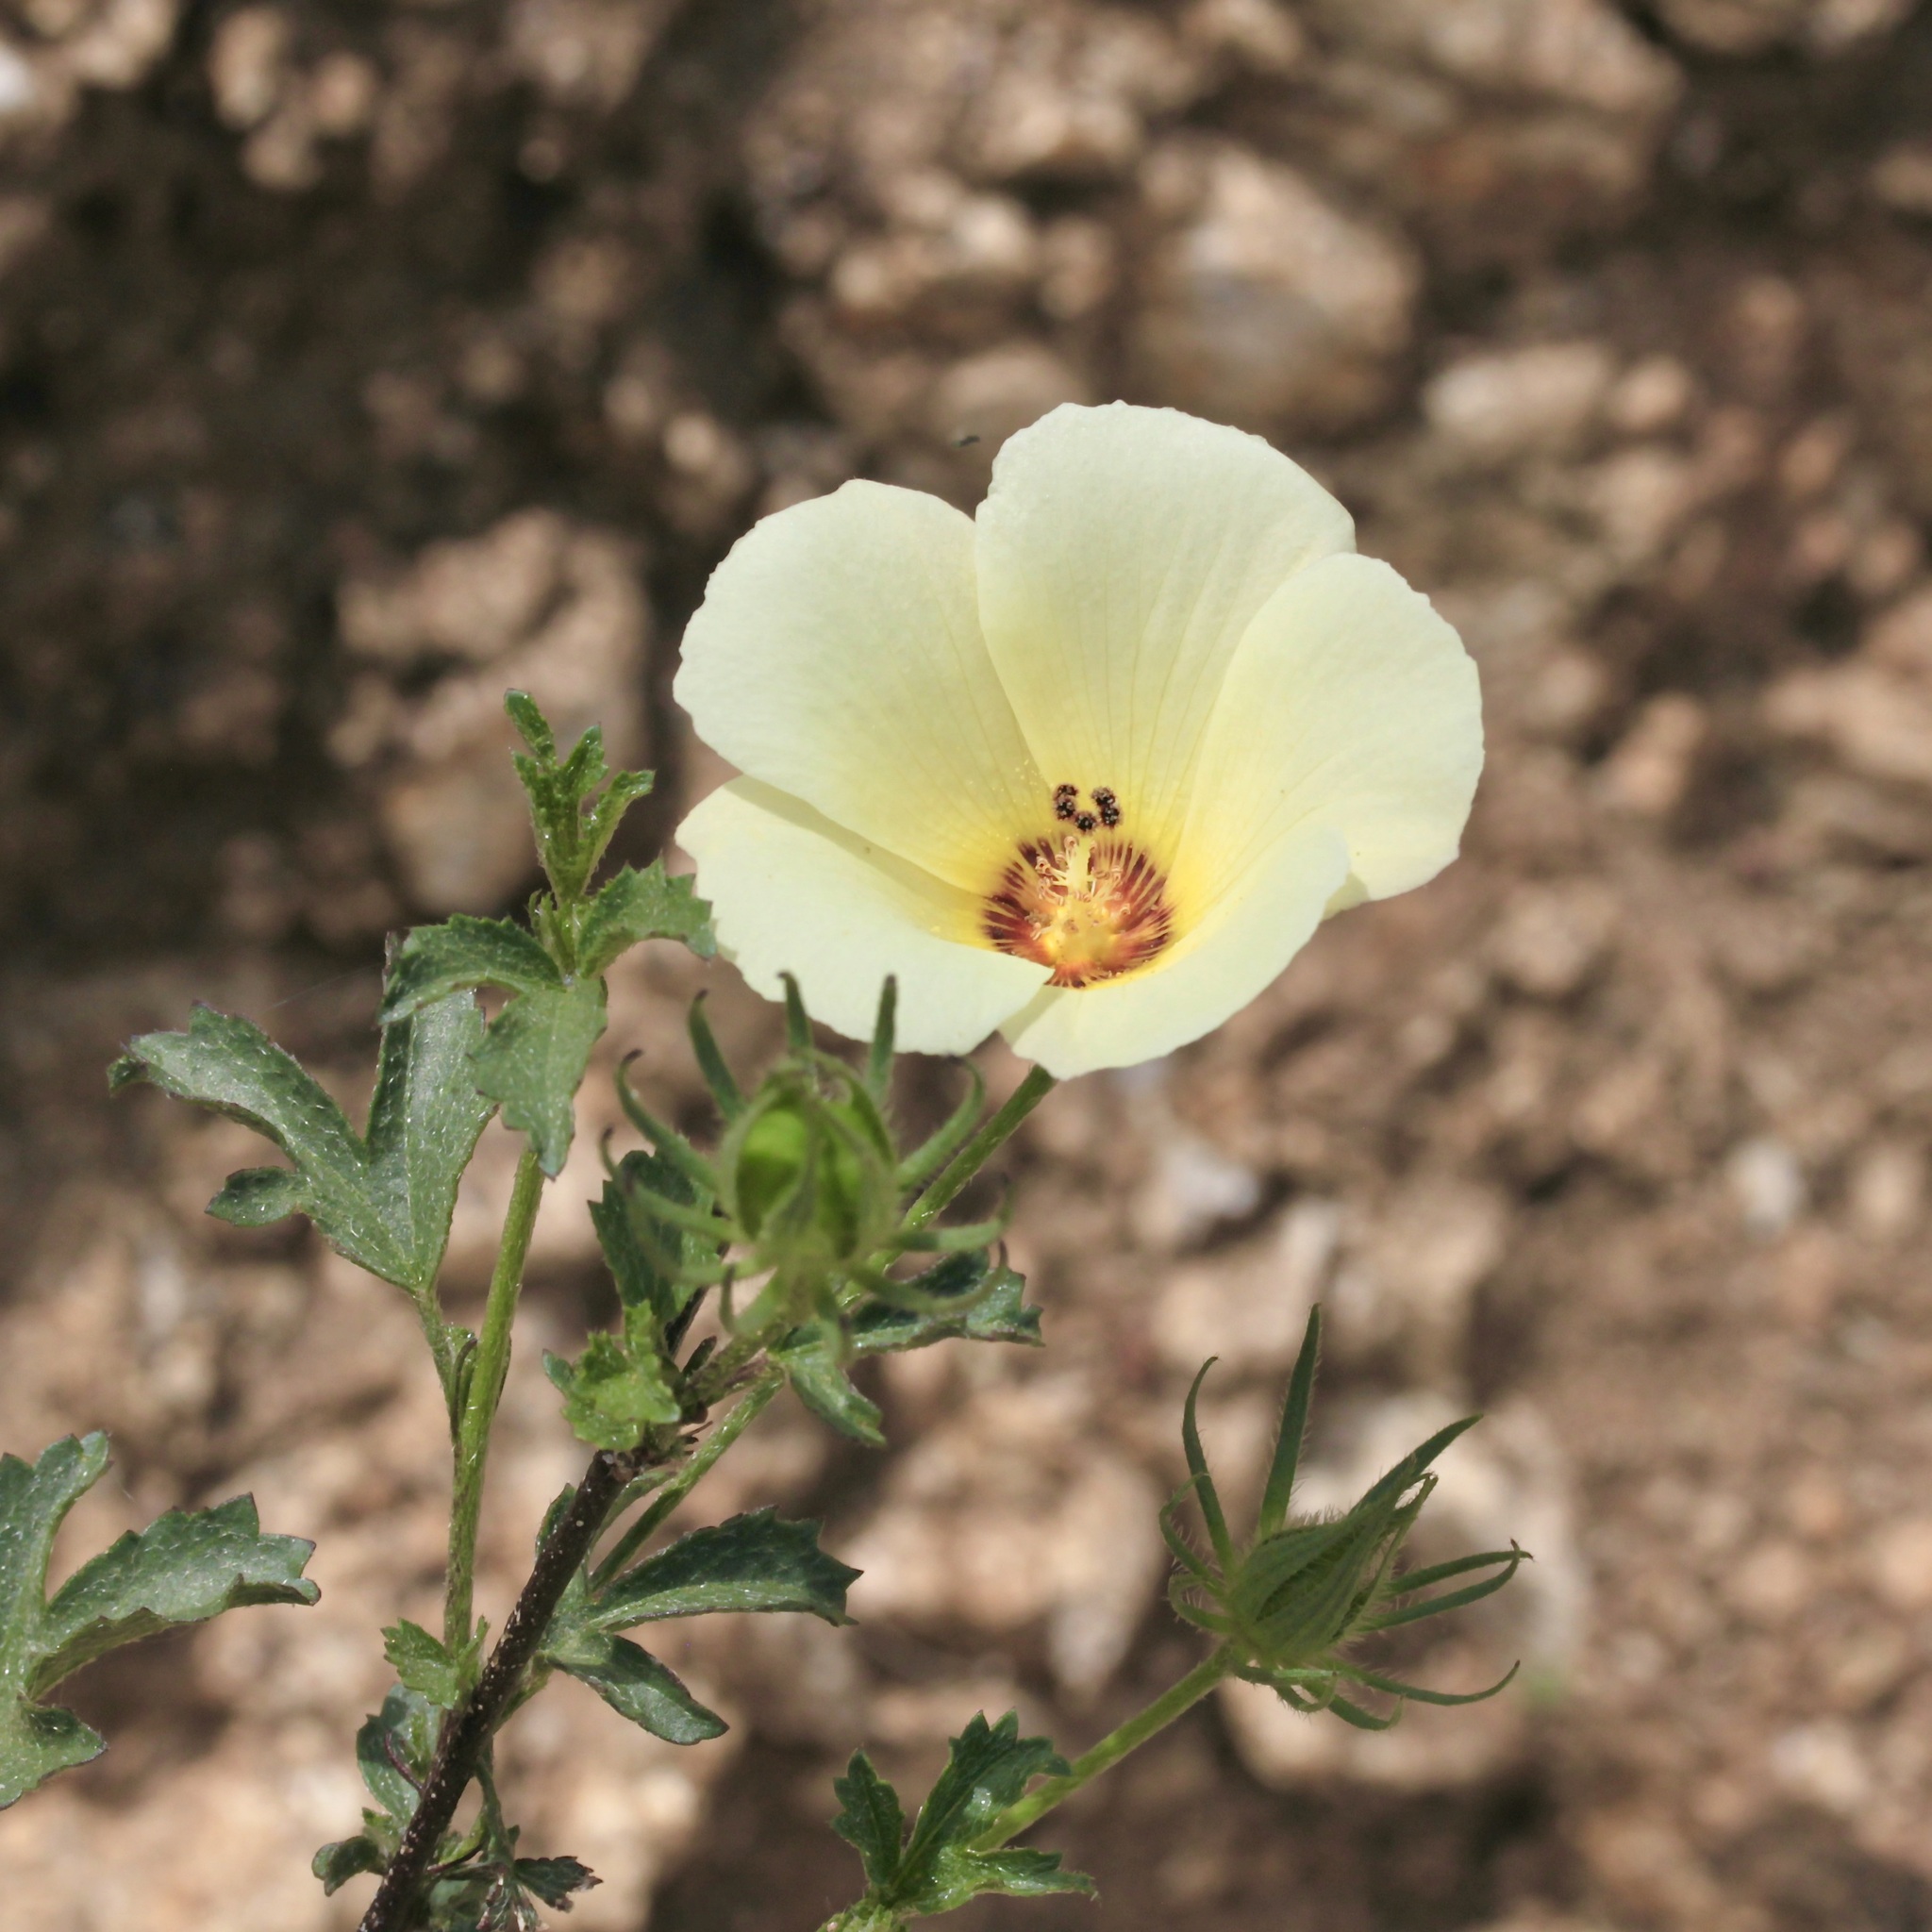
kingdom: Plantae
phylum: Tracheophyta
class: Magnoliopsida
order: Malvales
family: Malvaceae
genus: Hibiscus
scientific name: Hibiscus coulteri
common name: Desert rose-mallow
